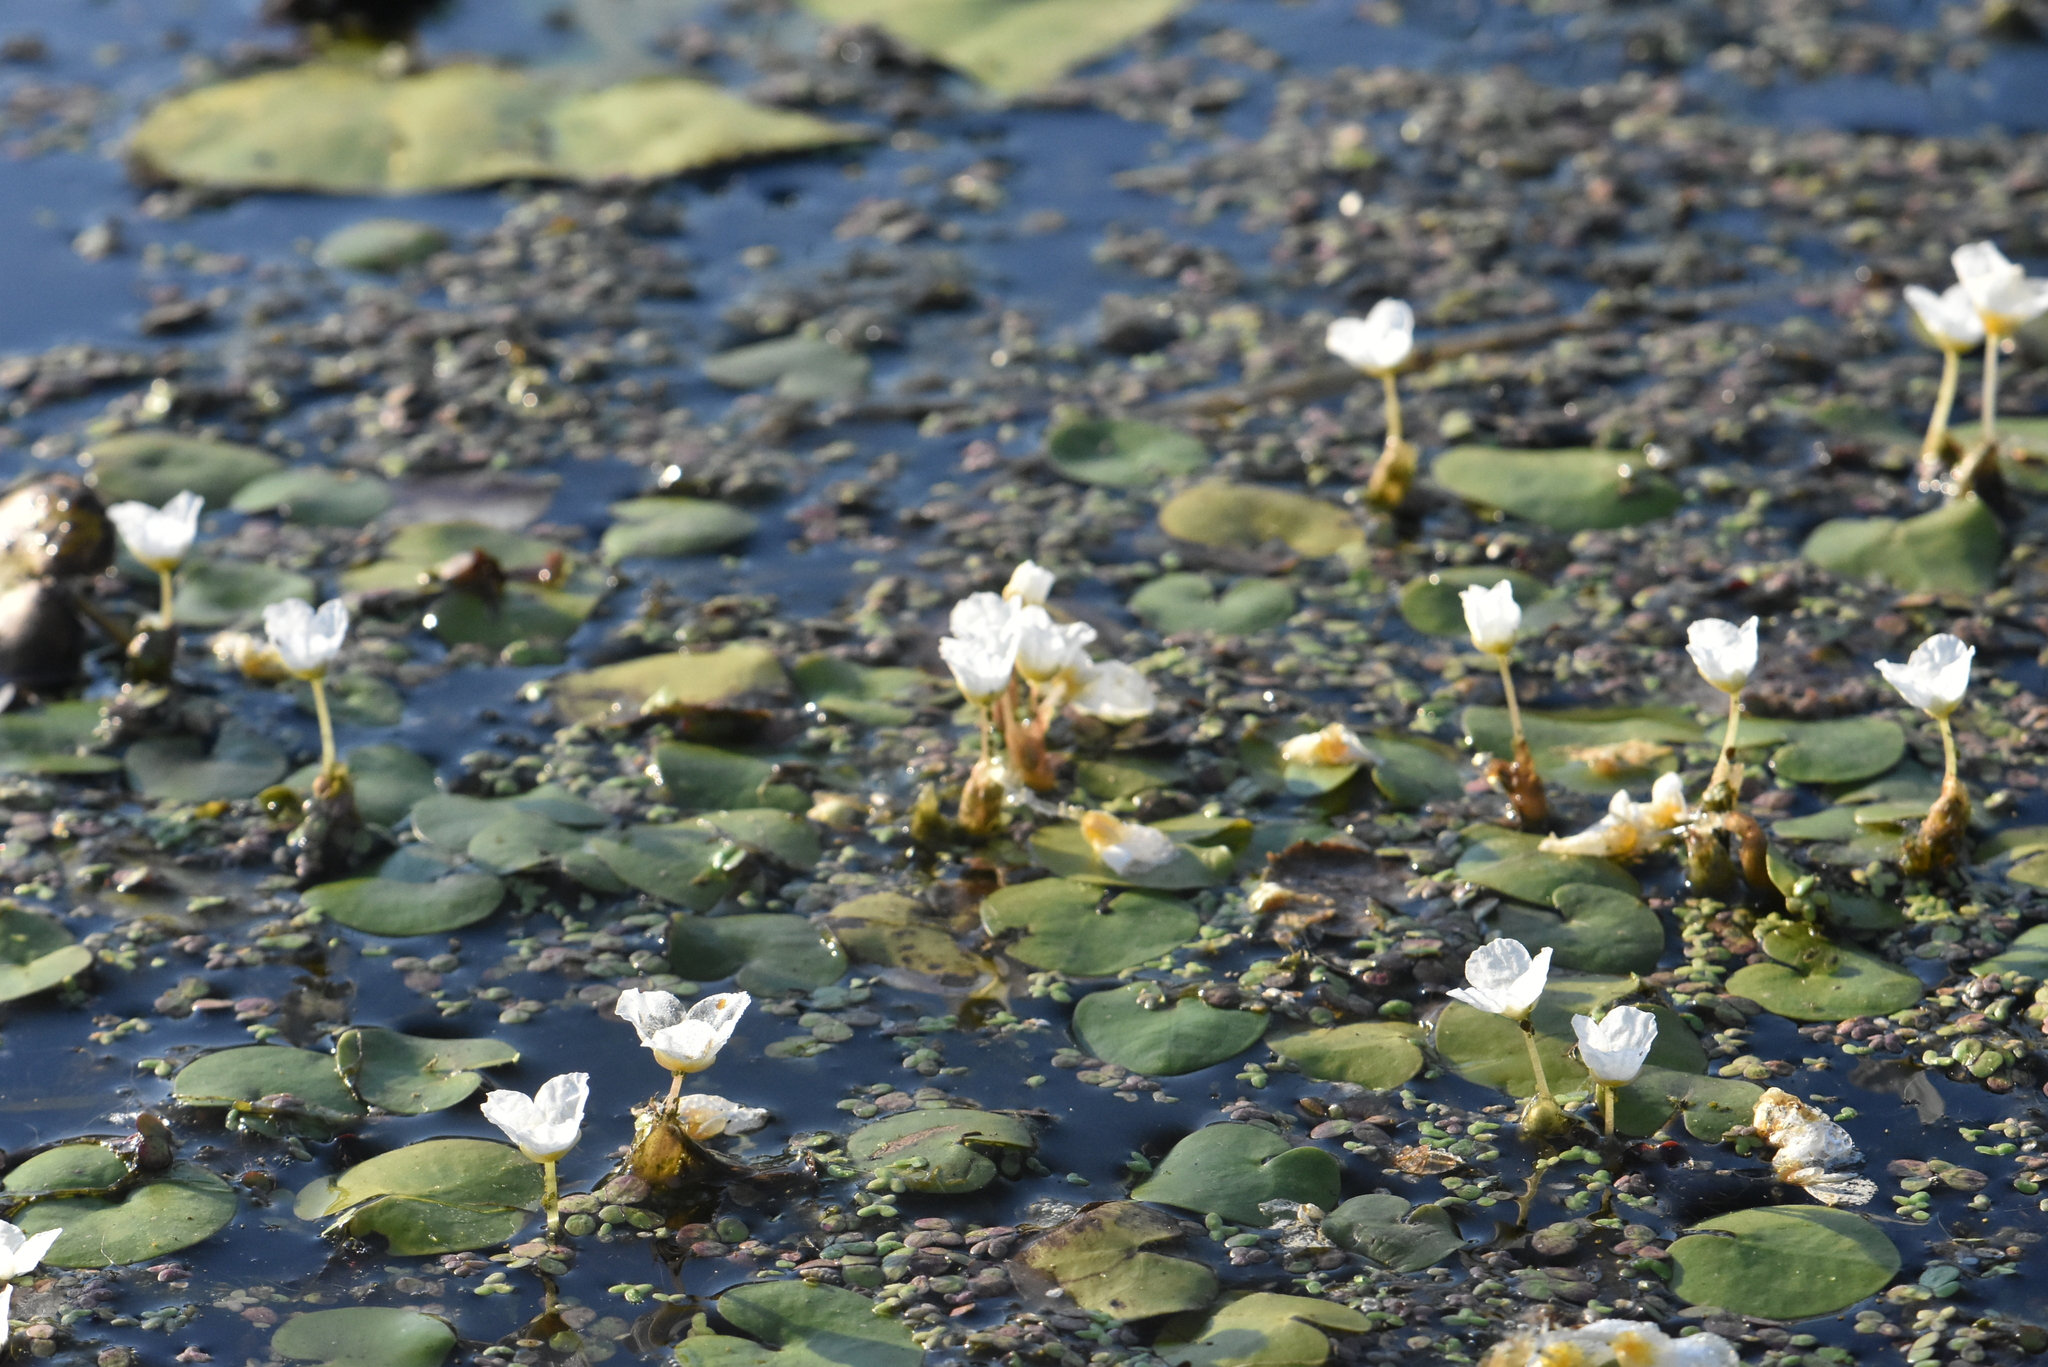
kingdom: Plantae
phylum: Tracheophyta
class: Liliopsida
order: Alismatales
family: Hydrocharitaceae
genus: Hydrocharis
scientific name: Hydrocharis morsus-ranae
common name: Frogbit
